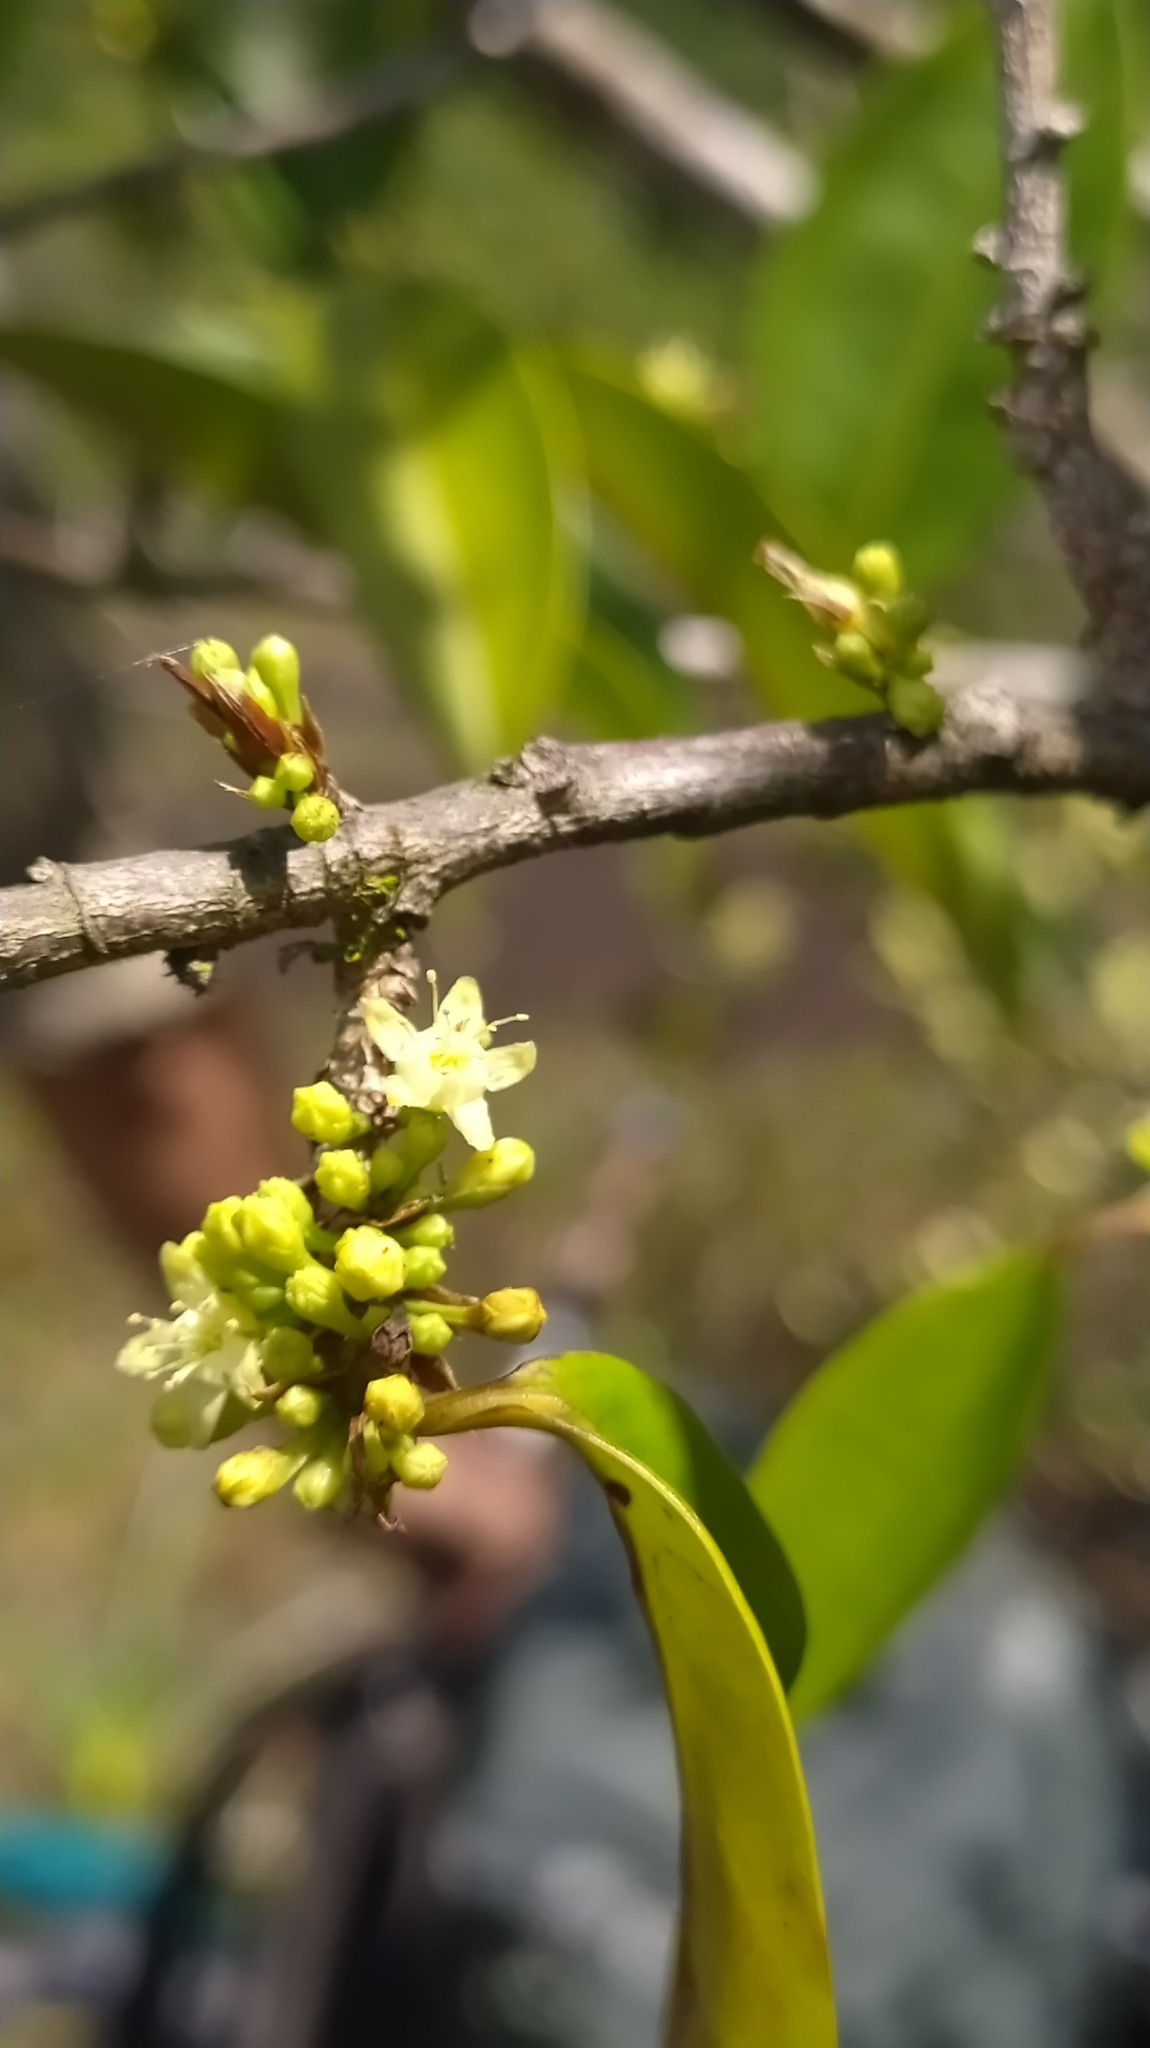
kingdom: Plantae
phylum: Tracheophyta
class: Magnoliopsida
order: Malpighiales
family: Erythroxylaceae
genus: Erythroxylum
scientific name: Erythroxylum
